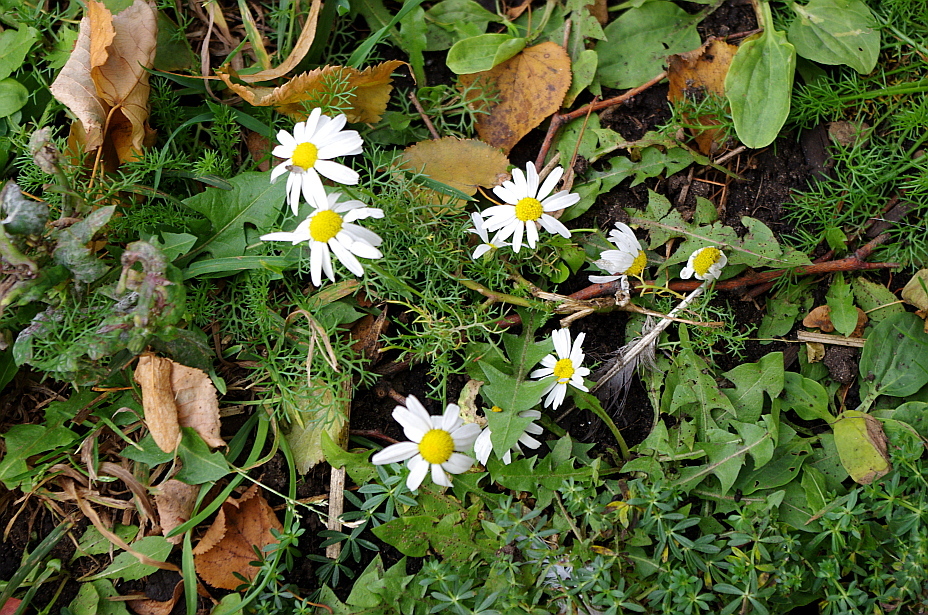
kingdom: Plantae
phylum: Tracheophyta
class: Magnoliopsida
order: Asterales
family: Asteraceae
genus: Tripleurospermum
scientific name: Tripleurospermum inodorum
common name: Scentless mayweed
